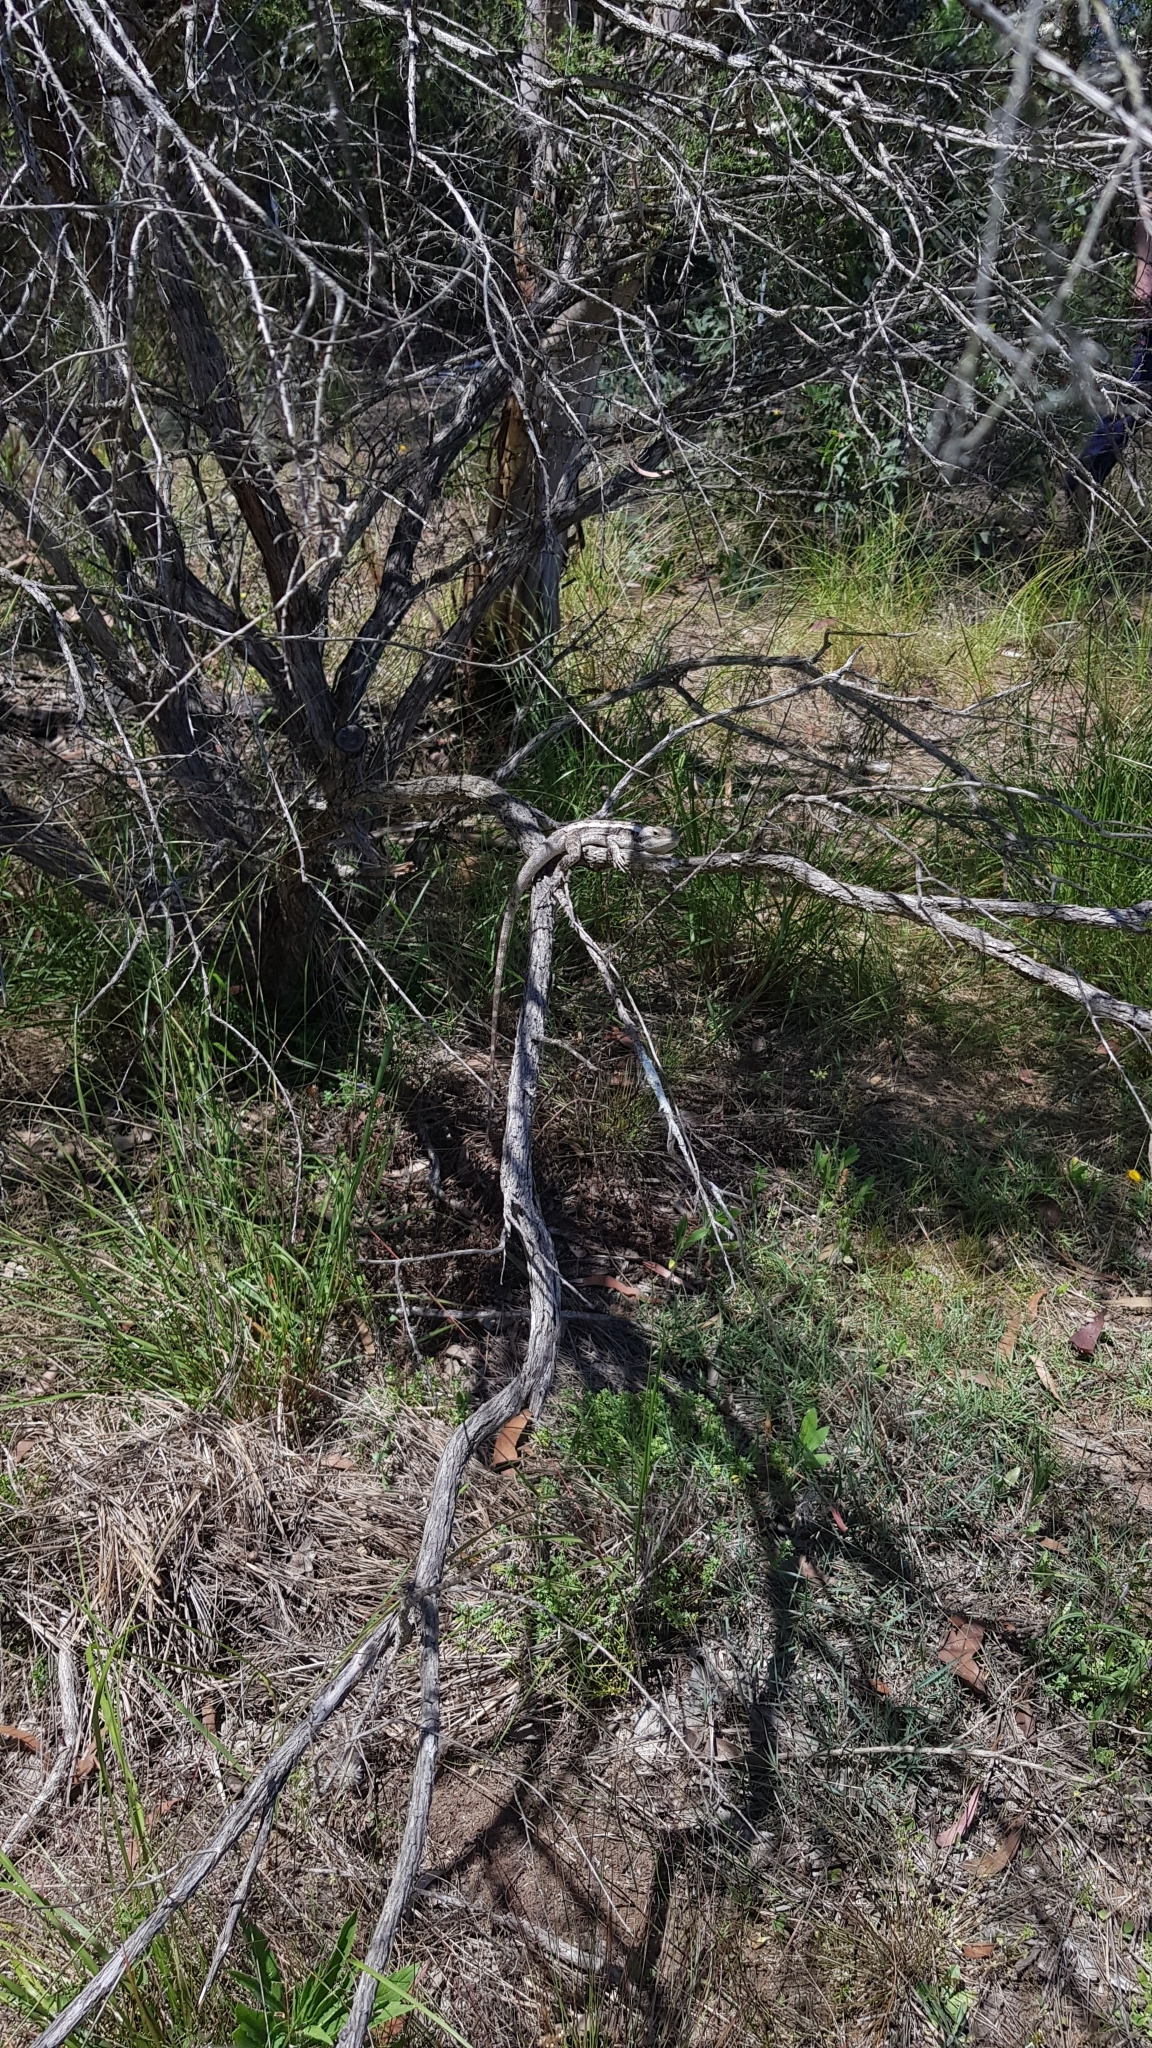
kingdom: Animalia
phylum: Chordata
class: Squamata
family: Agamidae
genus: Amphibolurus
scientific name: Amphibolurus muricatus
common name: Jacky lizard
